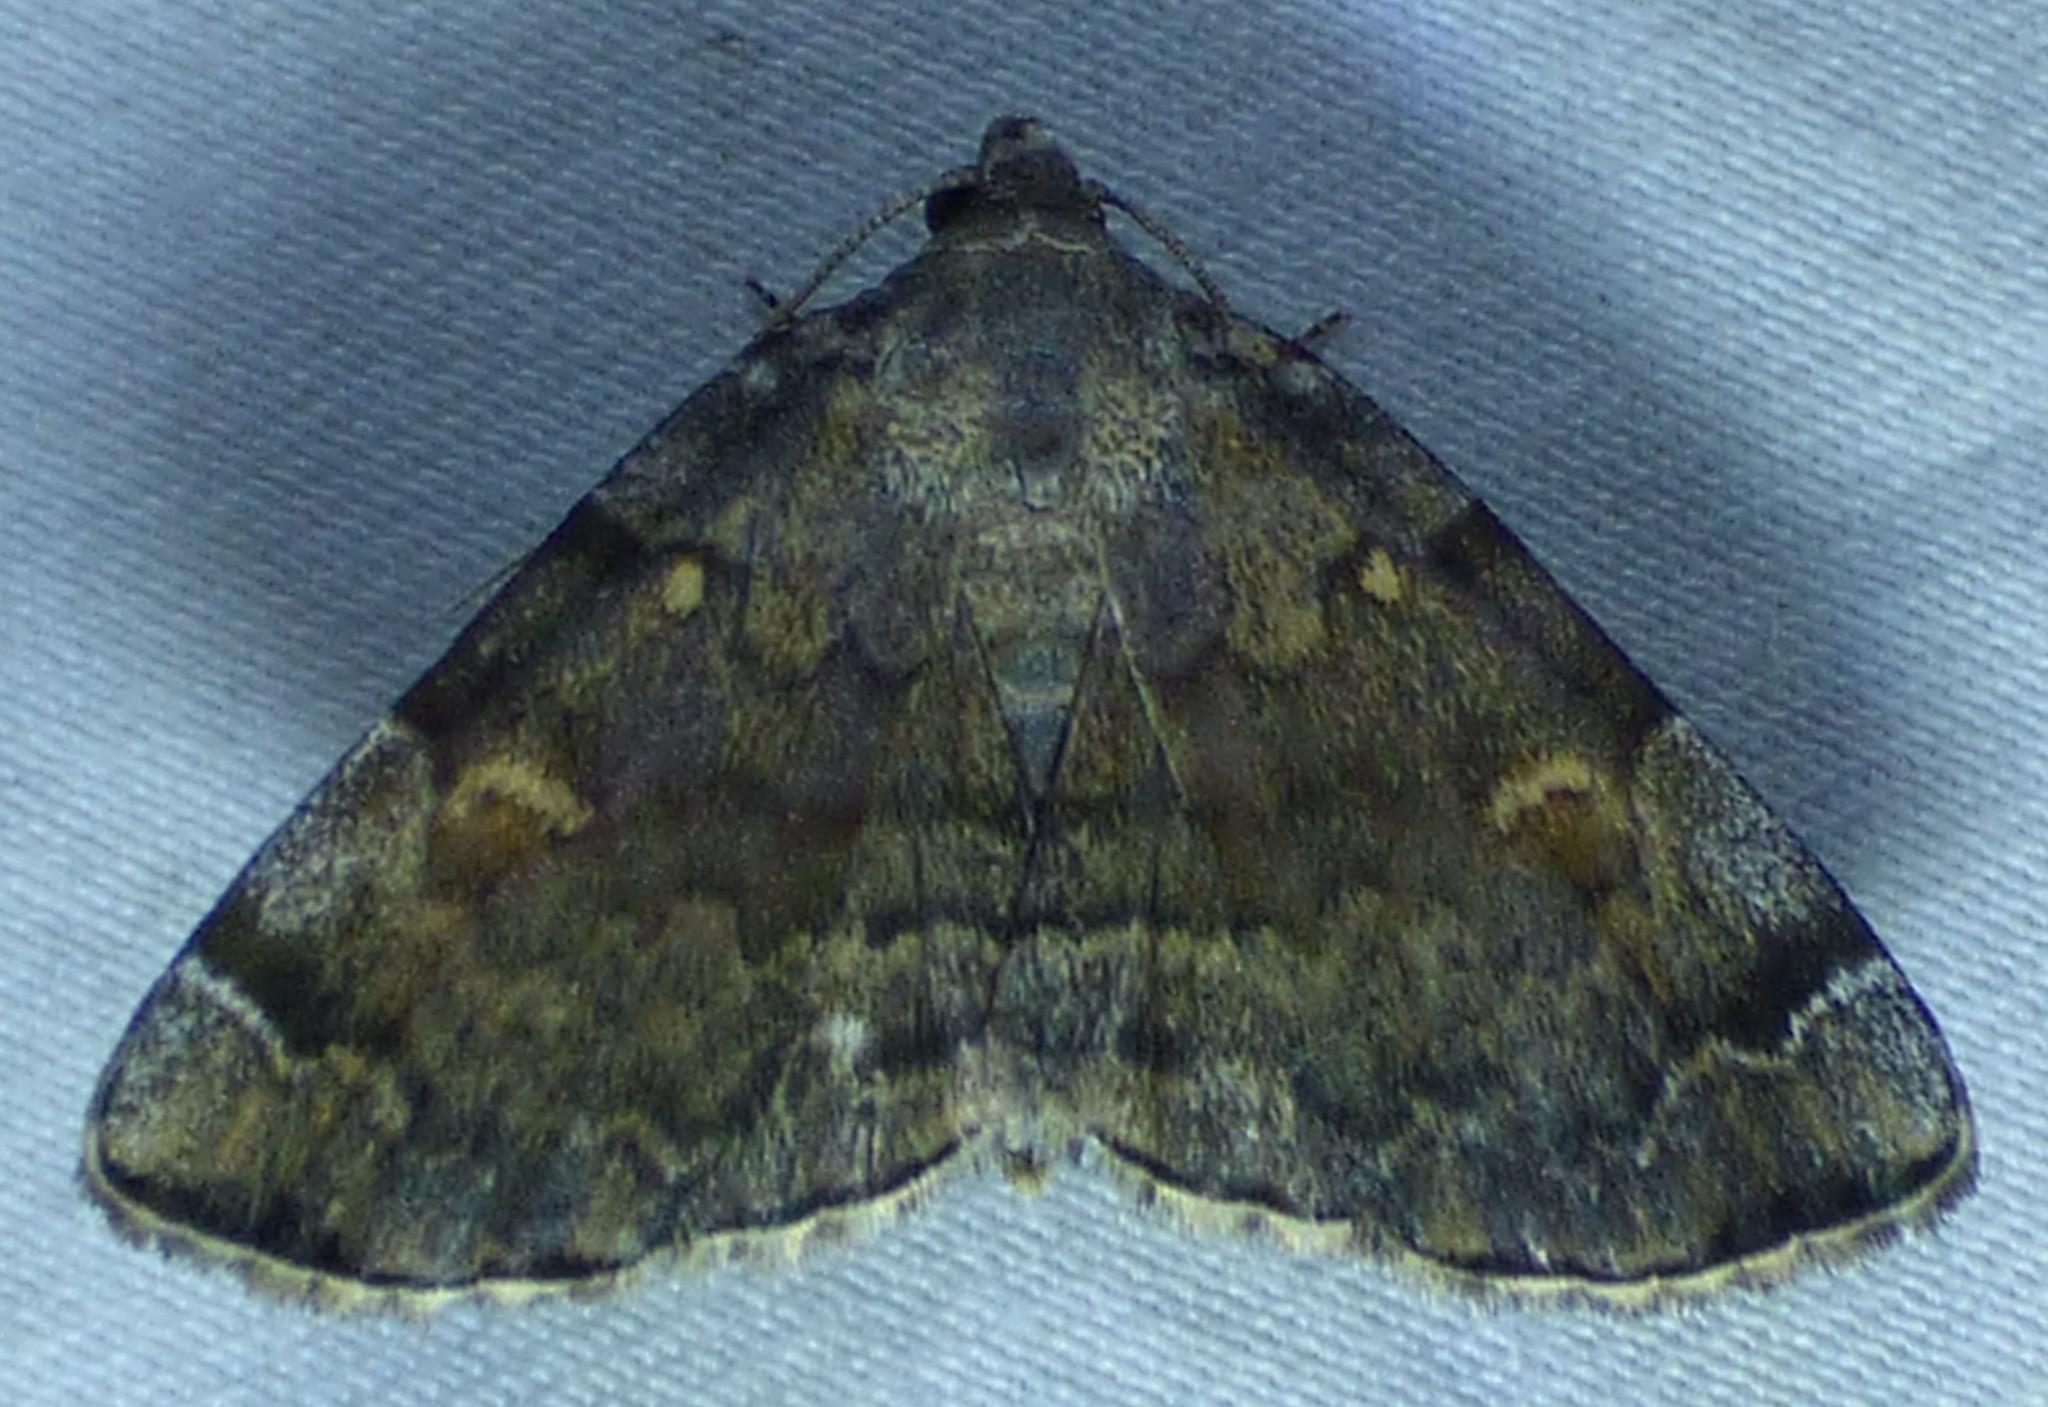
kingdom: Animalia
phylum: Arthropoda
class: Insecta
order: Lepidoptera
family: Erebidae
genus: Idia
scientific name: Idia americalis
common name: American idia moth
